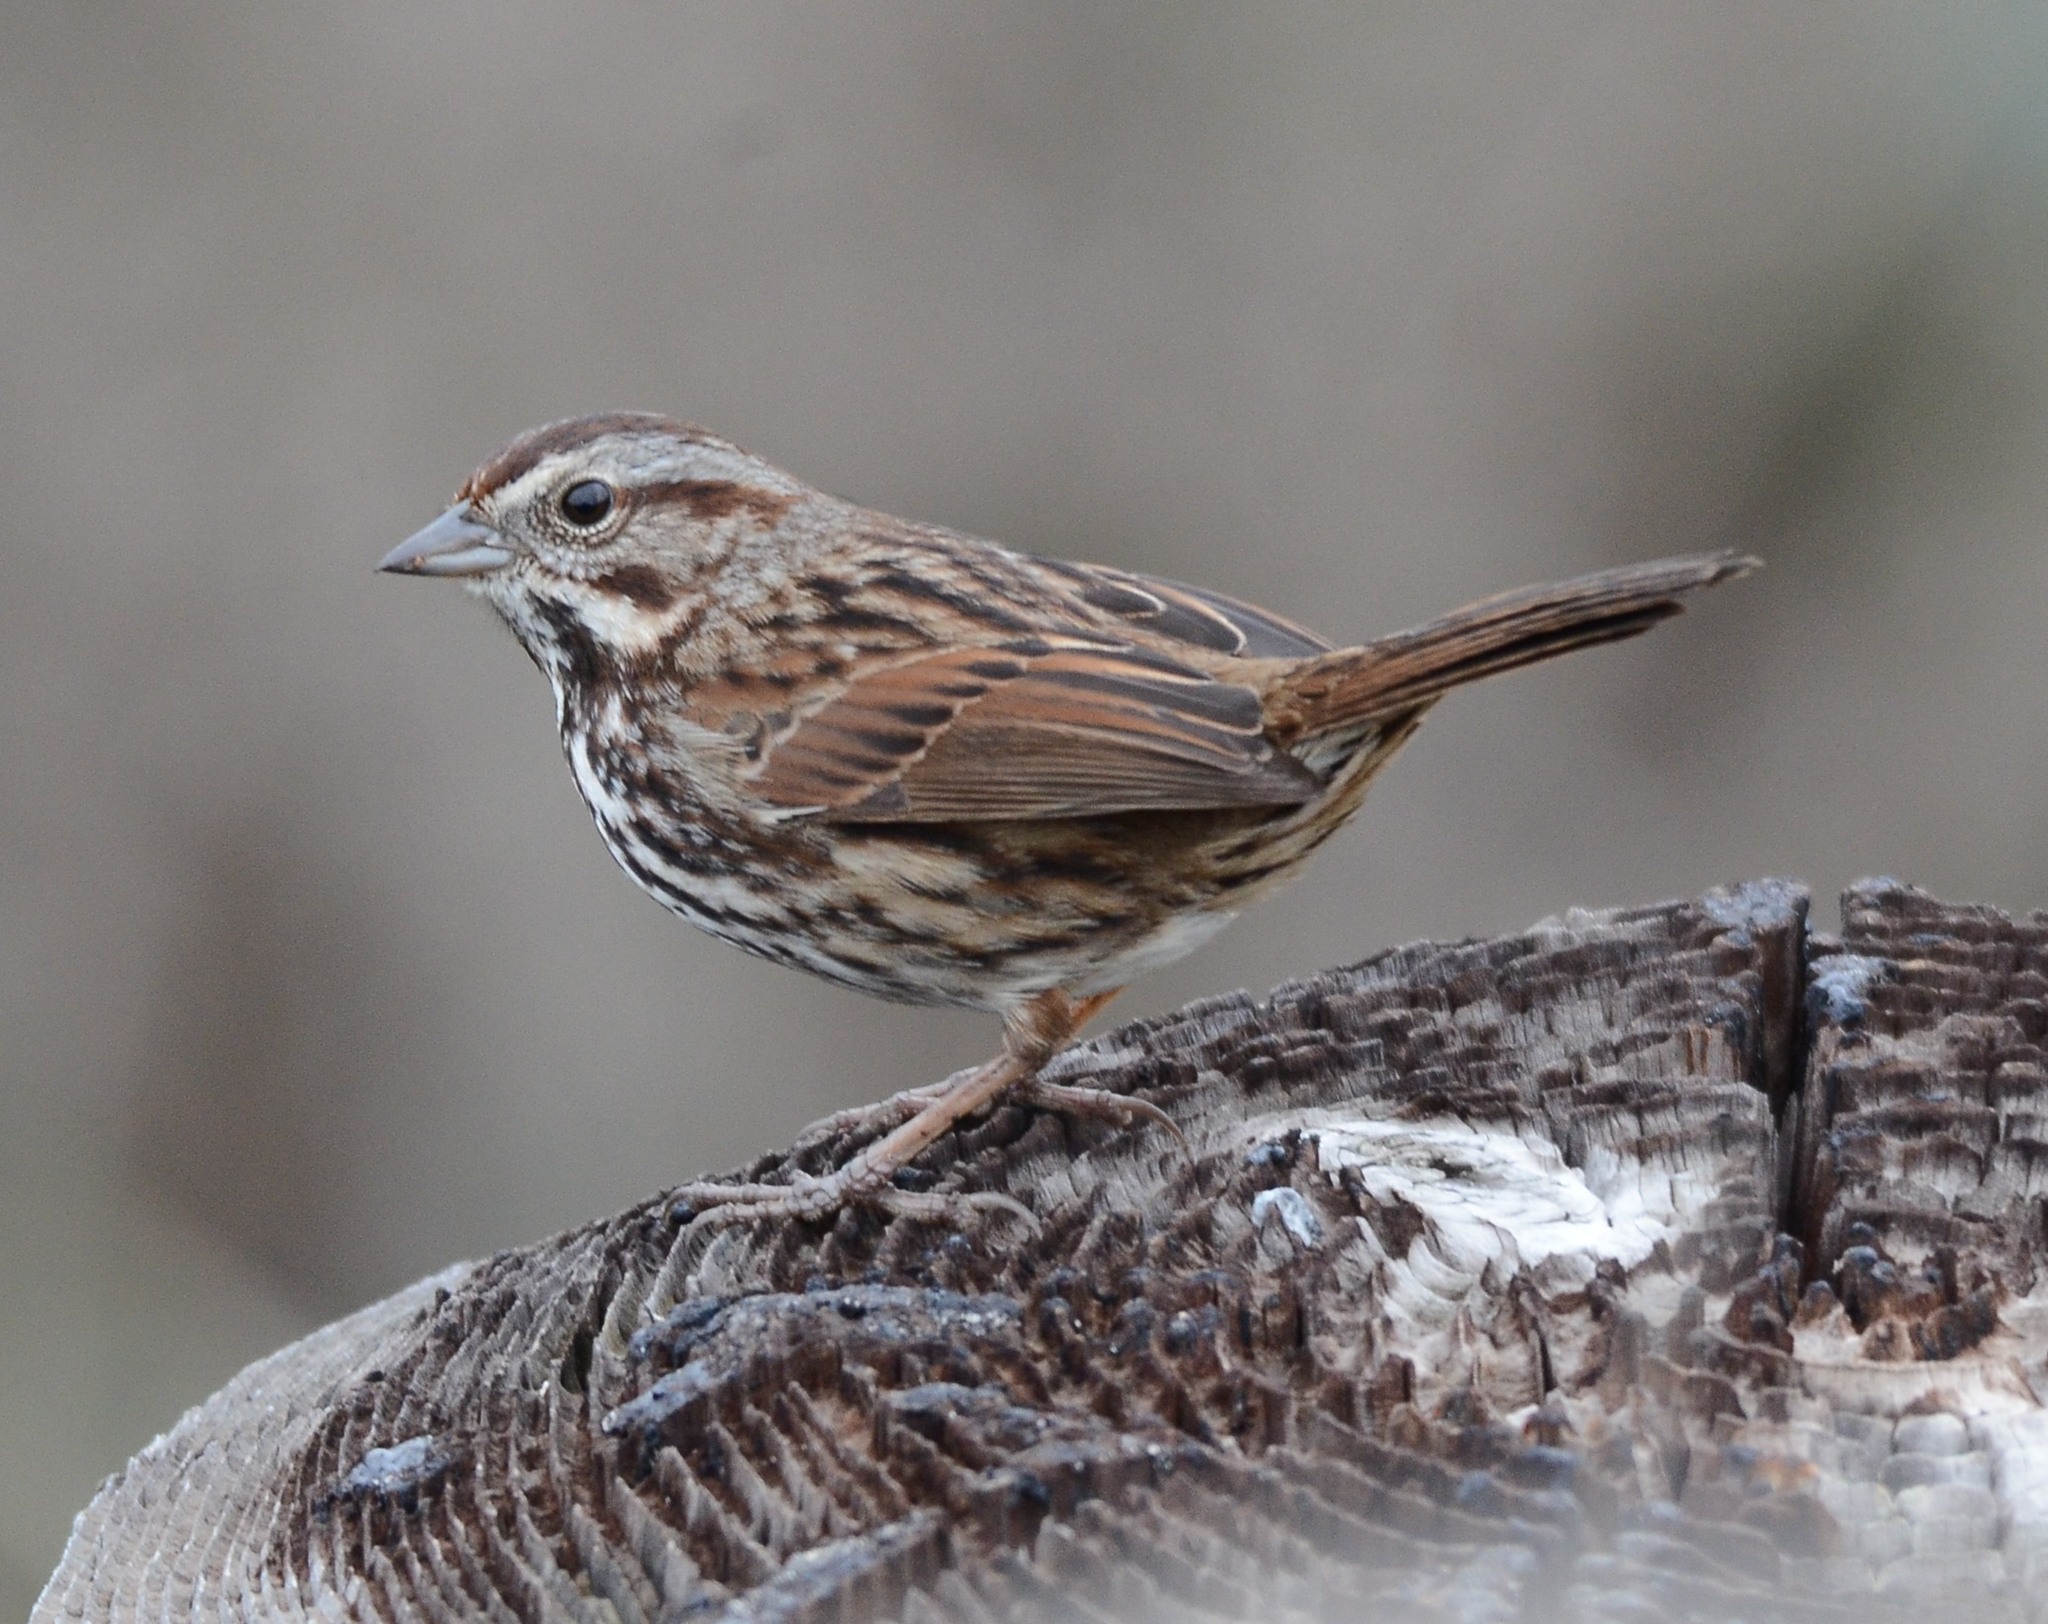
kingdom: Animalia
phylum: Chordata
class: Aves
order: Passeriformes
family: Passerellidae
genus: Melospiza
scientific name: Melospiza melodia
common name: Song sparrow
